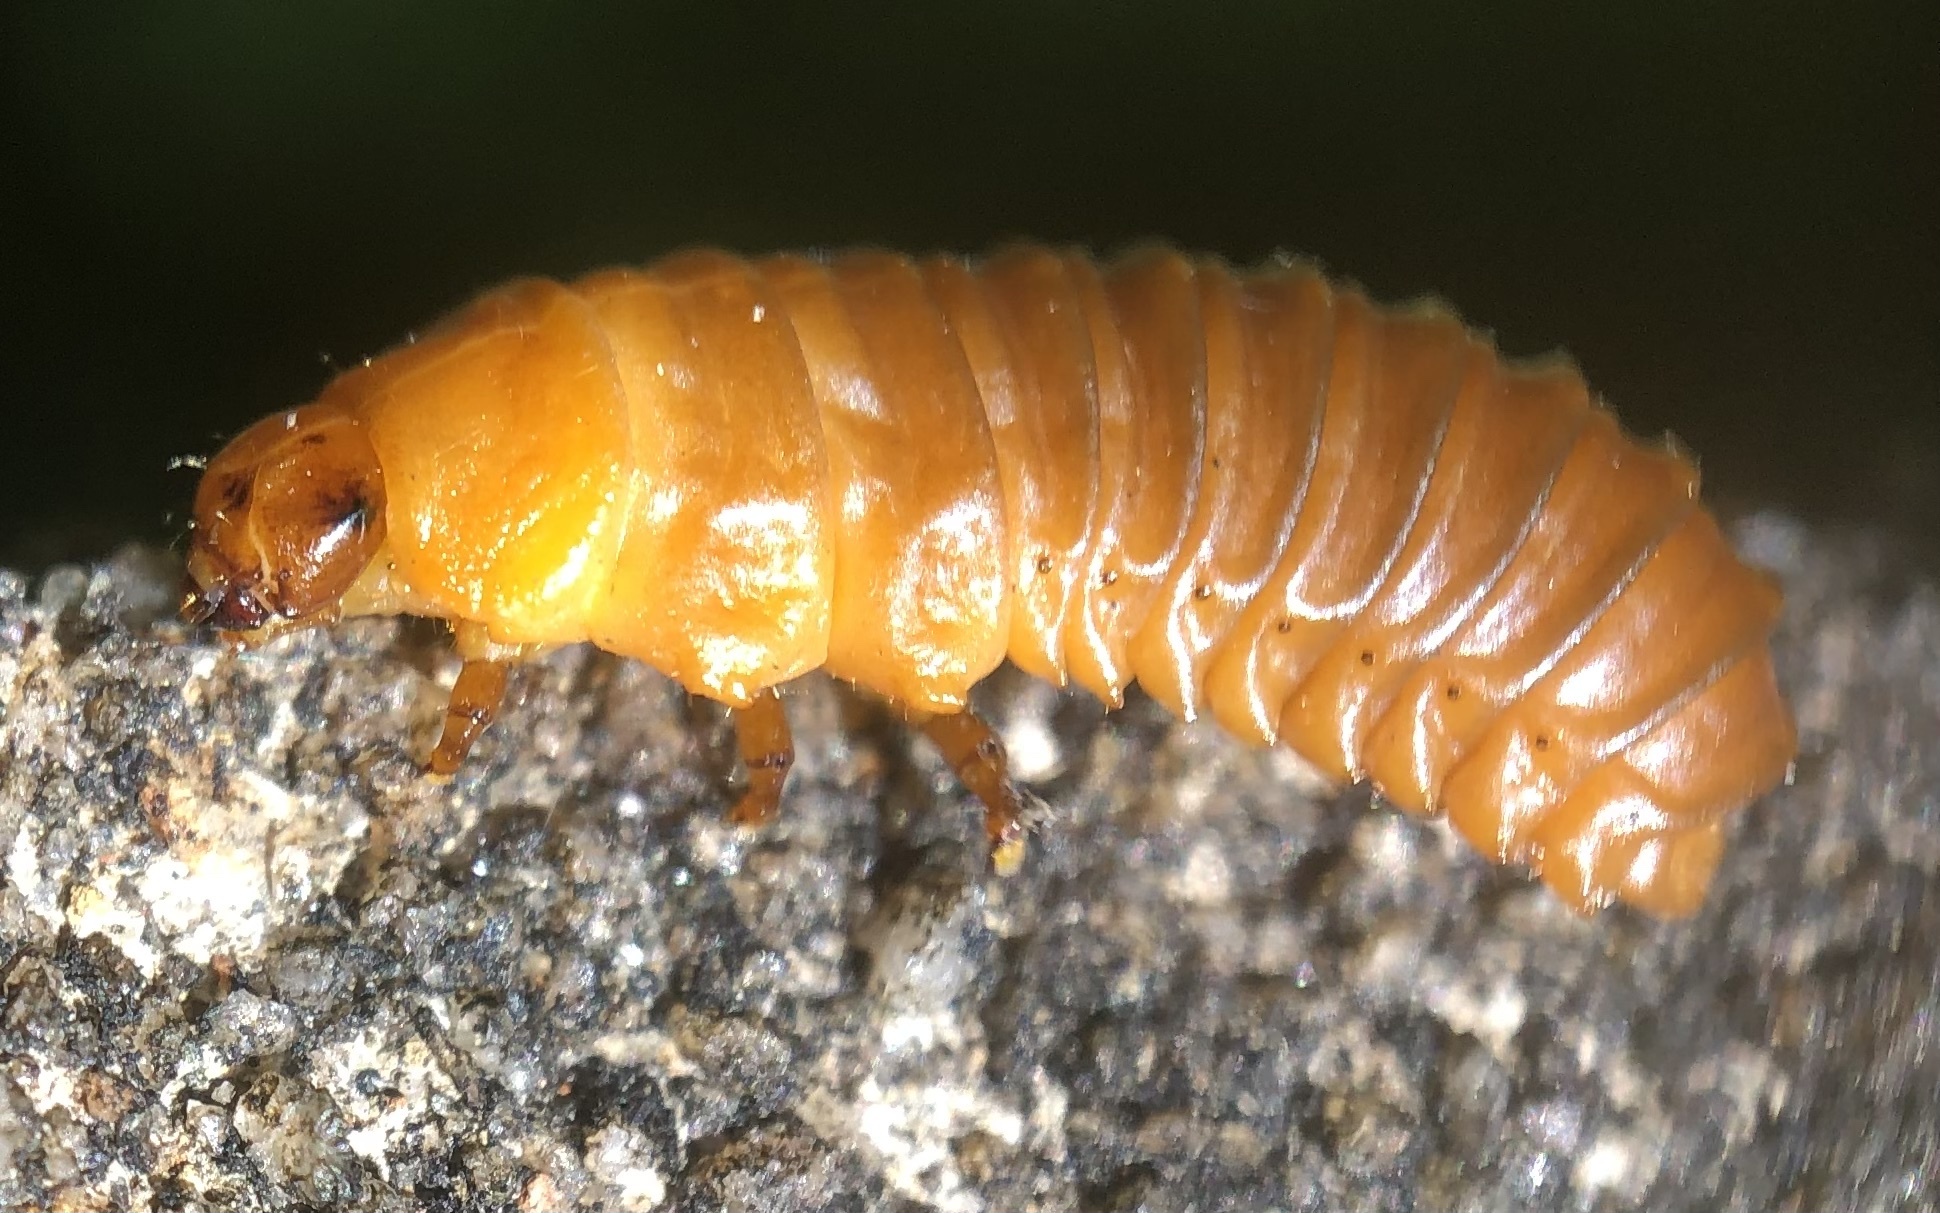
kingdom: Animalia
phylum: Arthropoda
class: Insecta
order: Coleoptera
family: Chrysomelidae
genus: Monocesta
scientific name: Monocesta coryli
